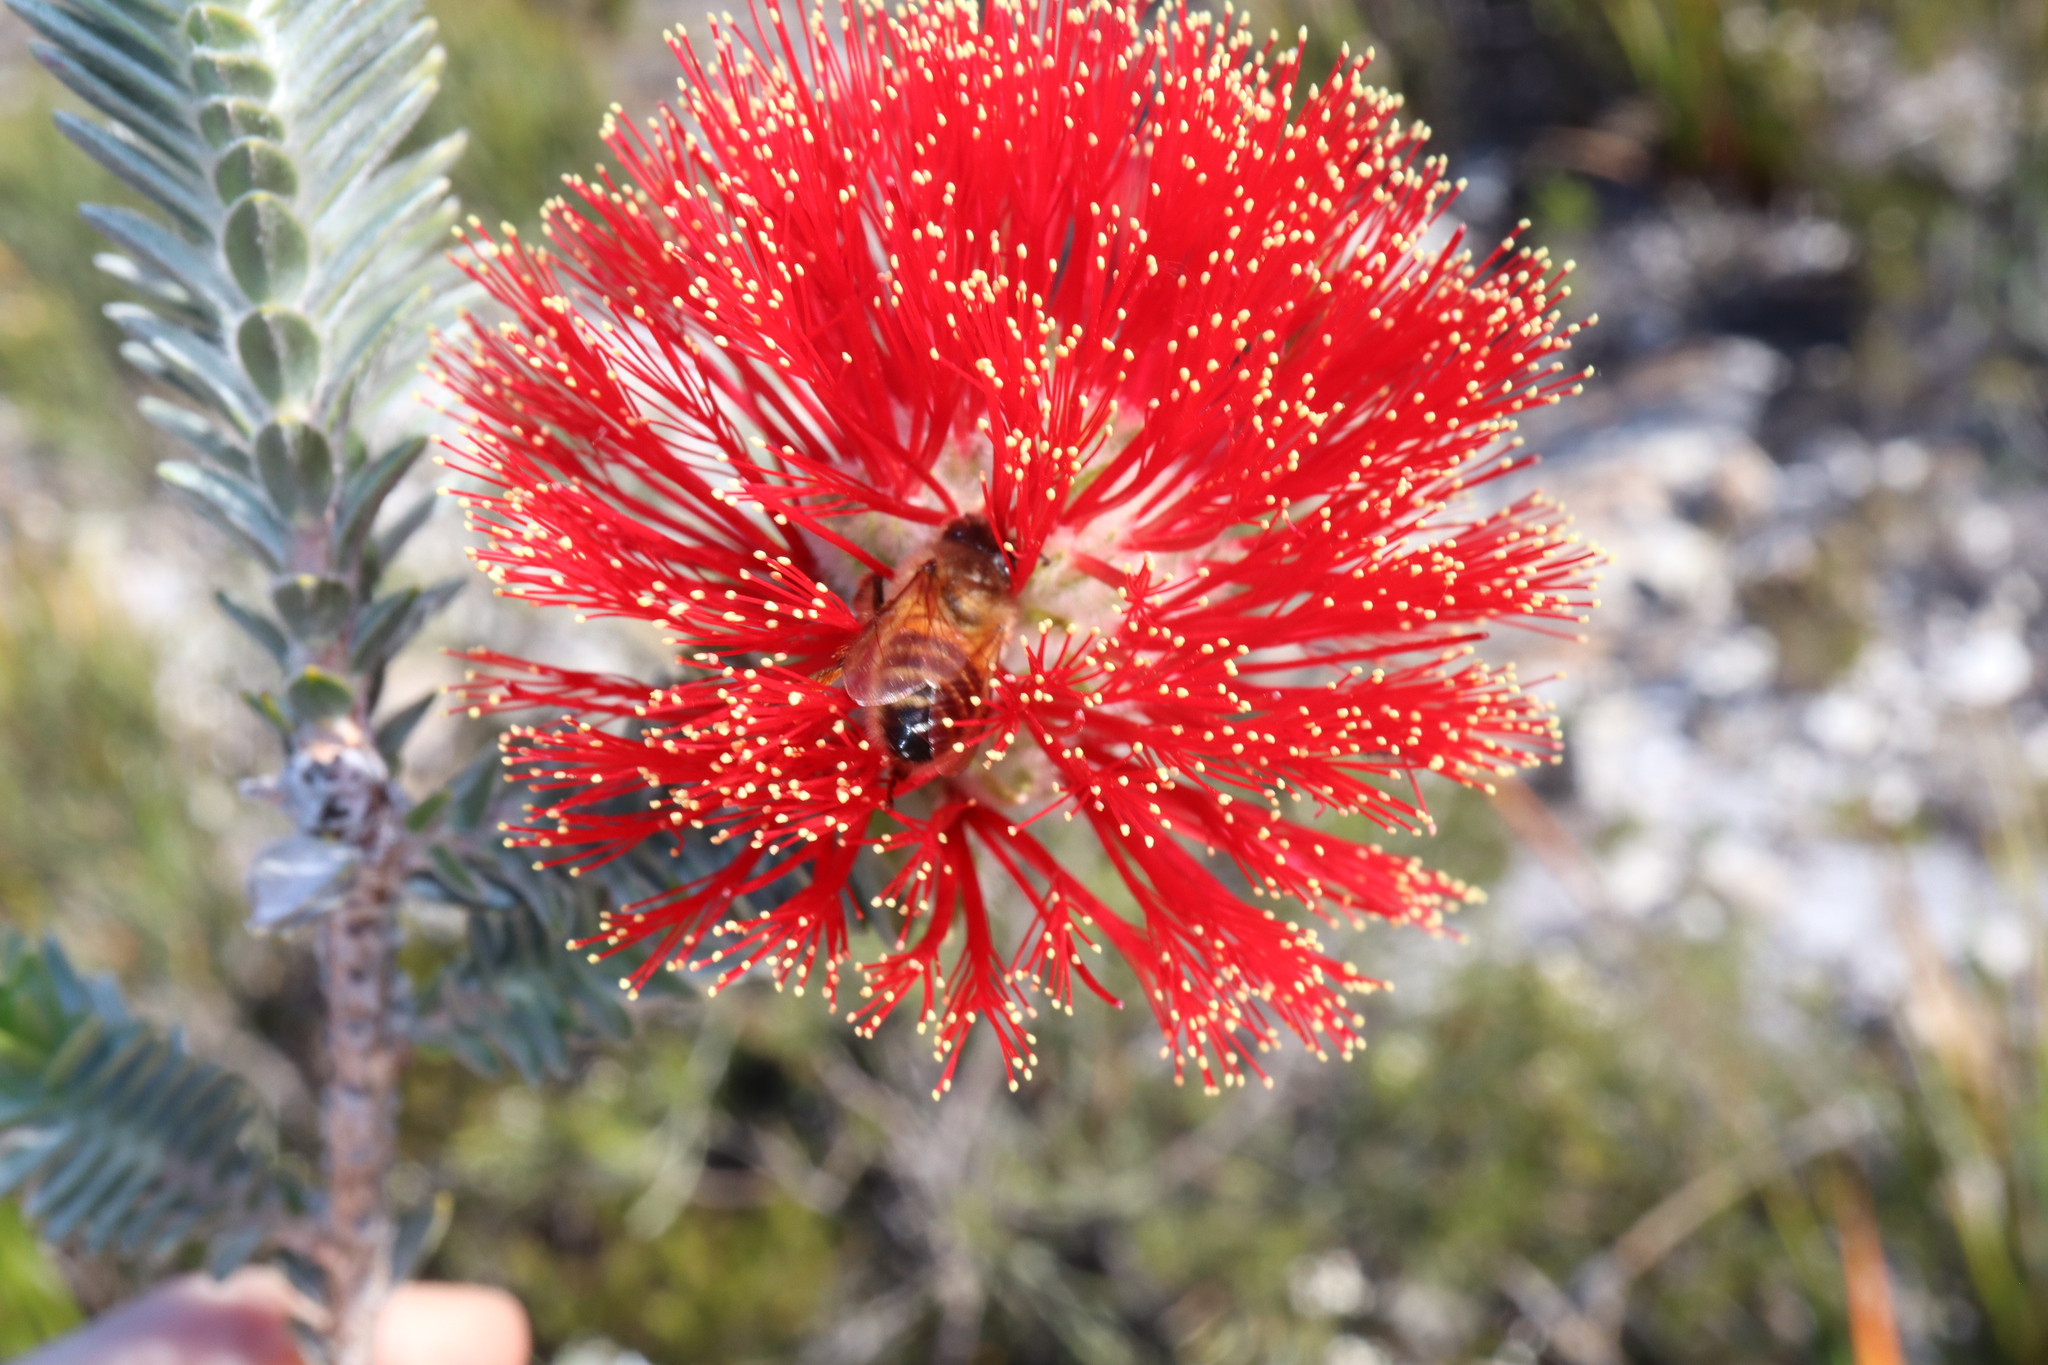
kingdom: Animalia
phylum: Arthropoda
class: Insecta
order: Hymenoptera
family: Apidae
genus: Apis
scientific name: Apis mellifera
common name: Honey bee
